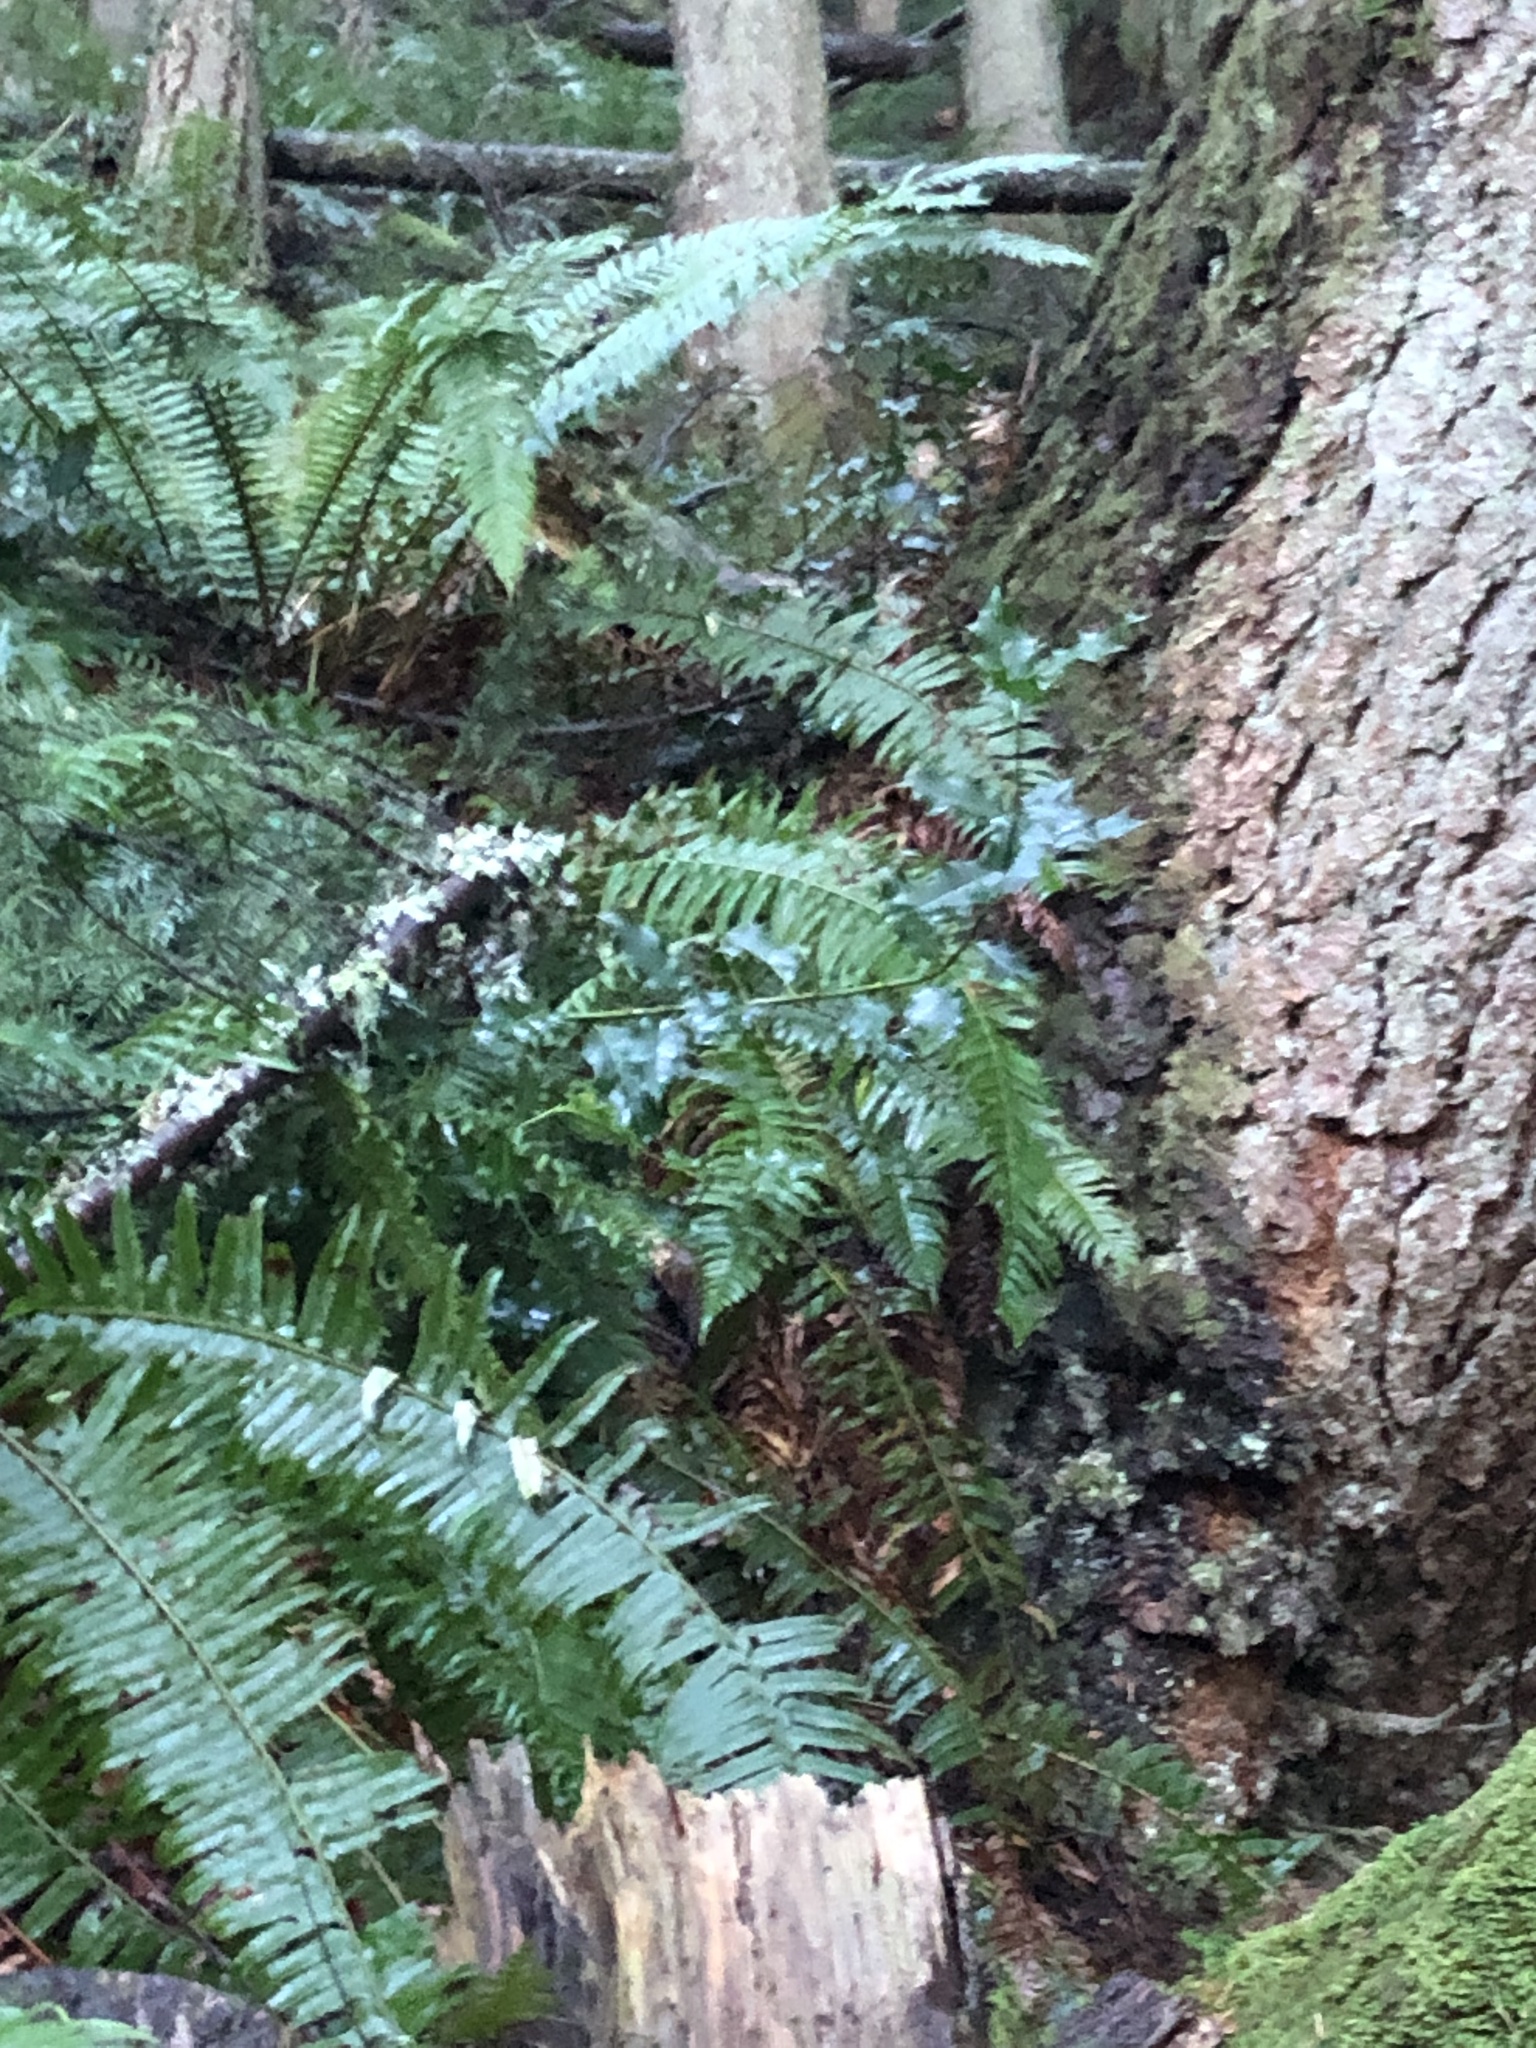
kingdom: Plantae
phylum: Tracheophyta
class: Magnoliopsida
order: Aquifoliales
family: Aquifoliaceae
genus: Ilex
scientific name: Ilex aquifolium
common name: English holly
